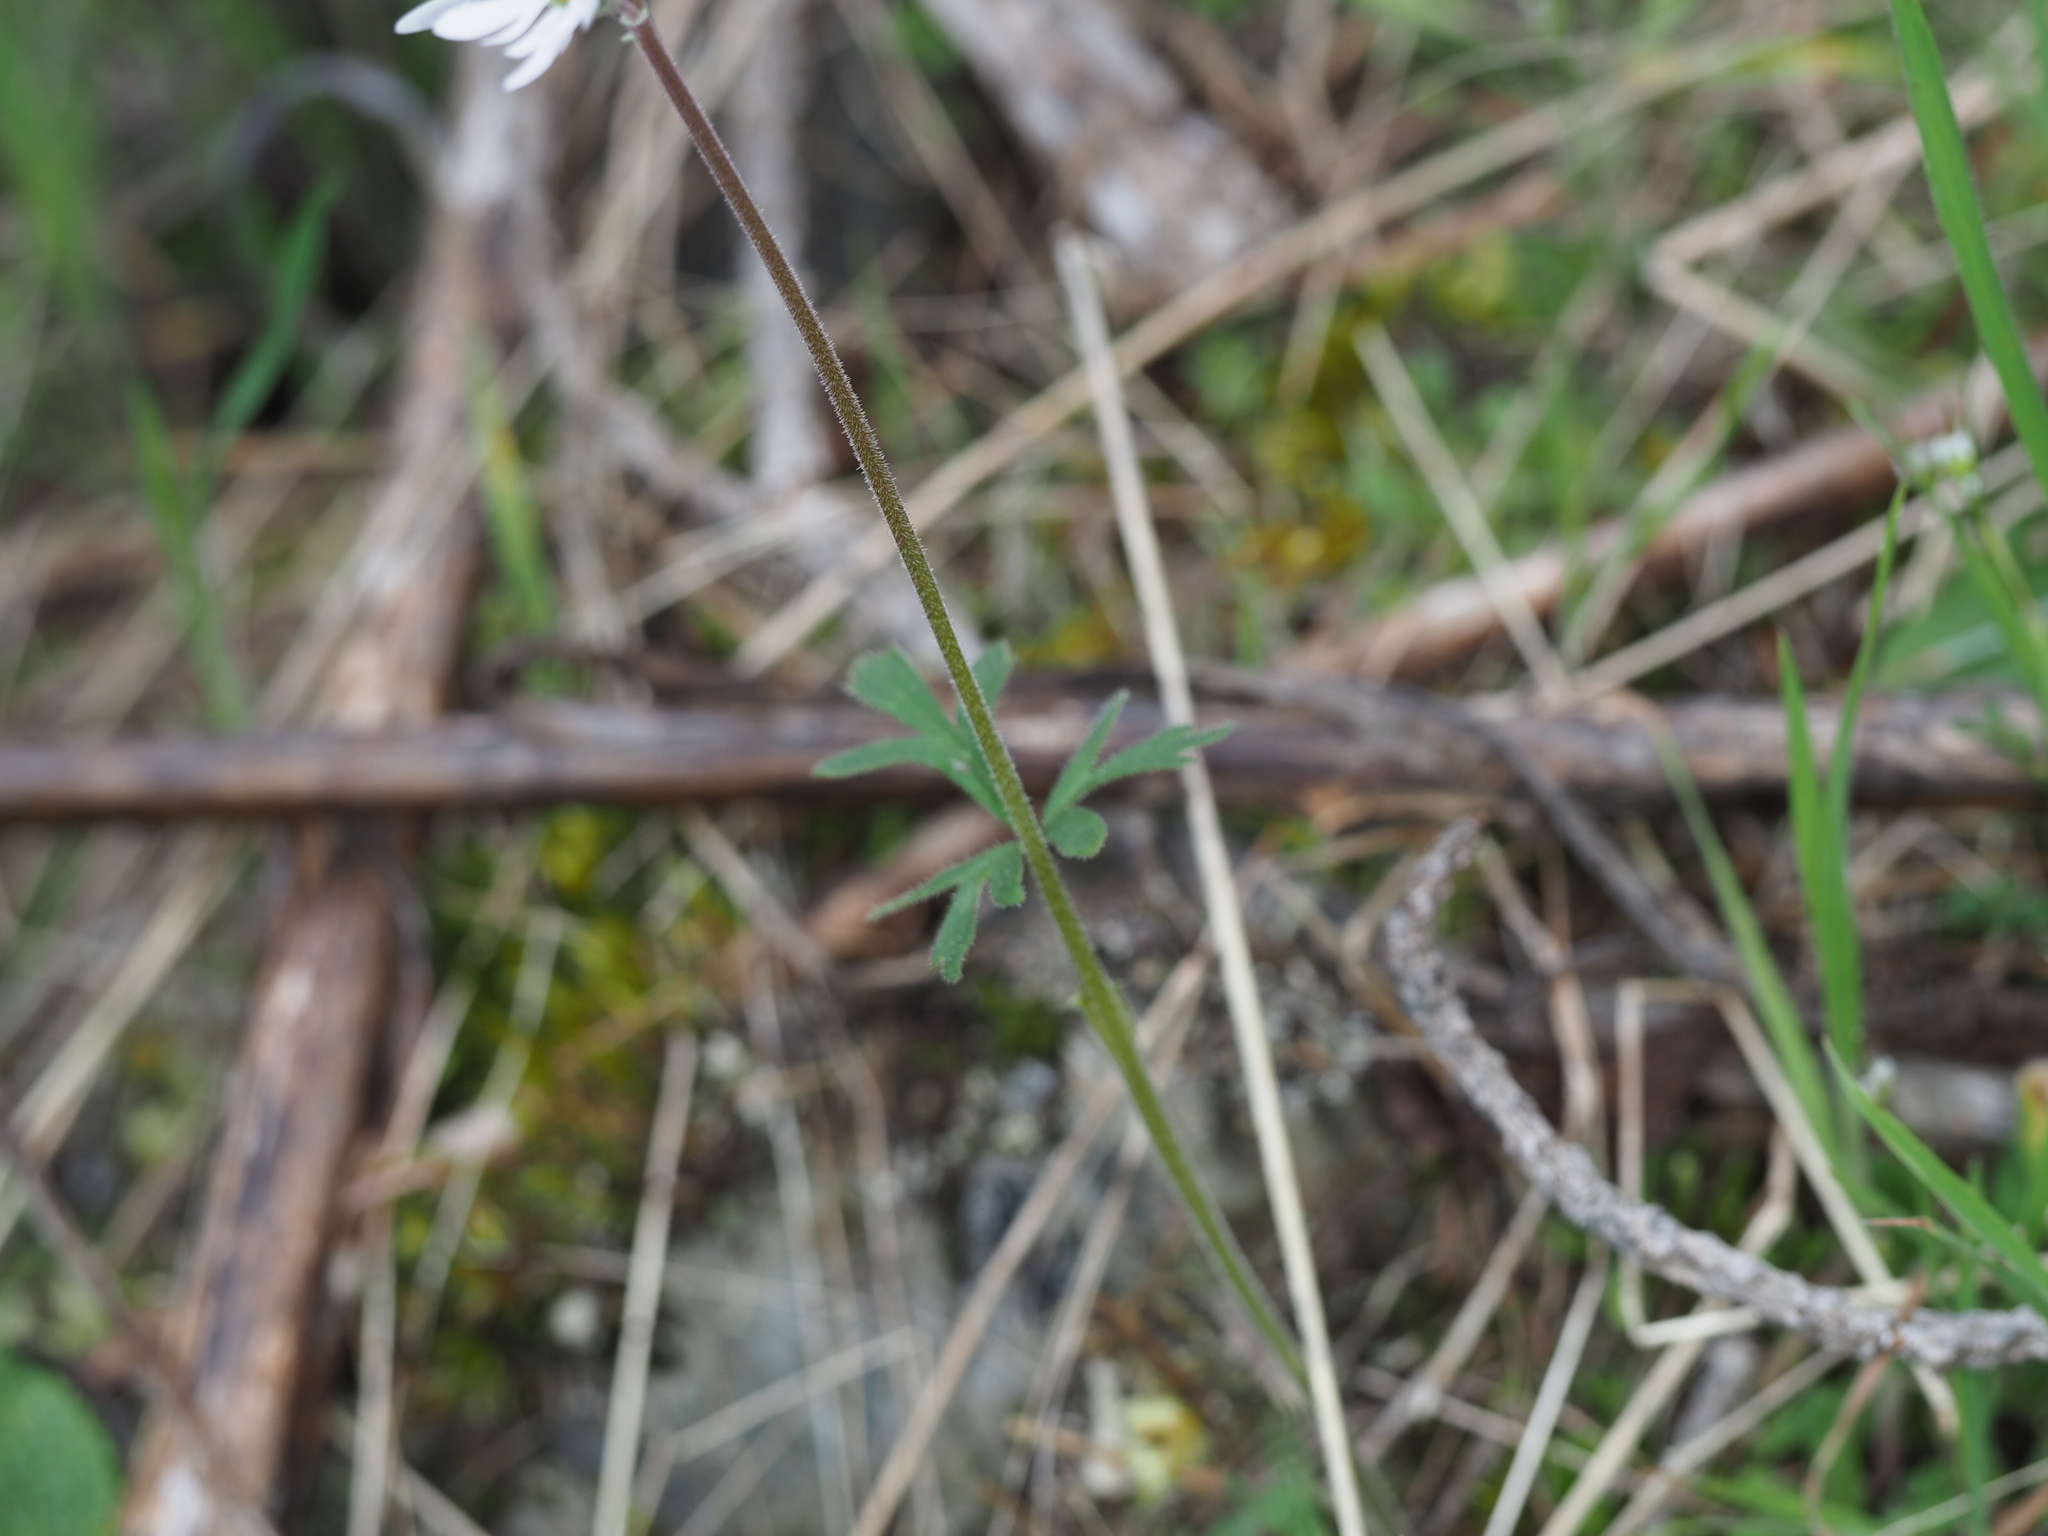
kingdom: Plantae
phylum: Tracheophyta
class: Magnoliopsida
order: Saxifragales
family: Saxifragaceae
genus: Lithophragma
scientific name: Lithophragma parviflorum
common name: Small-flowered fringe-cup
